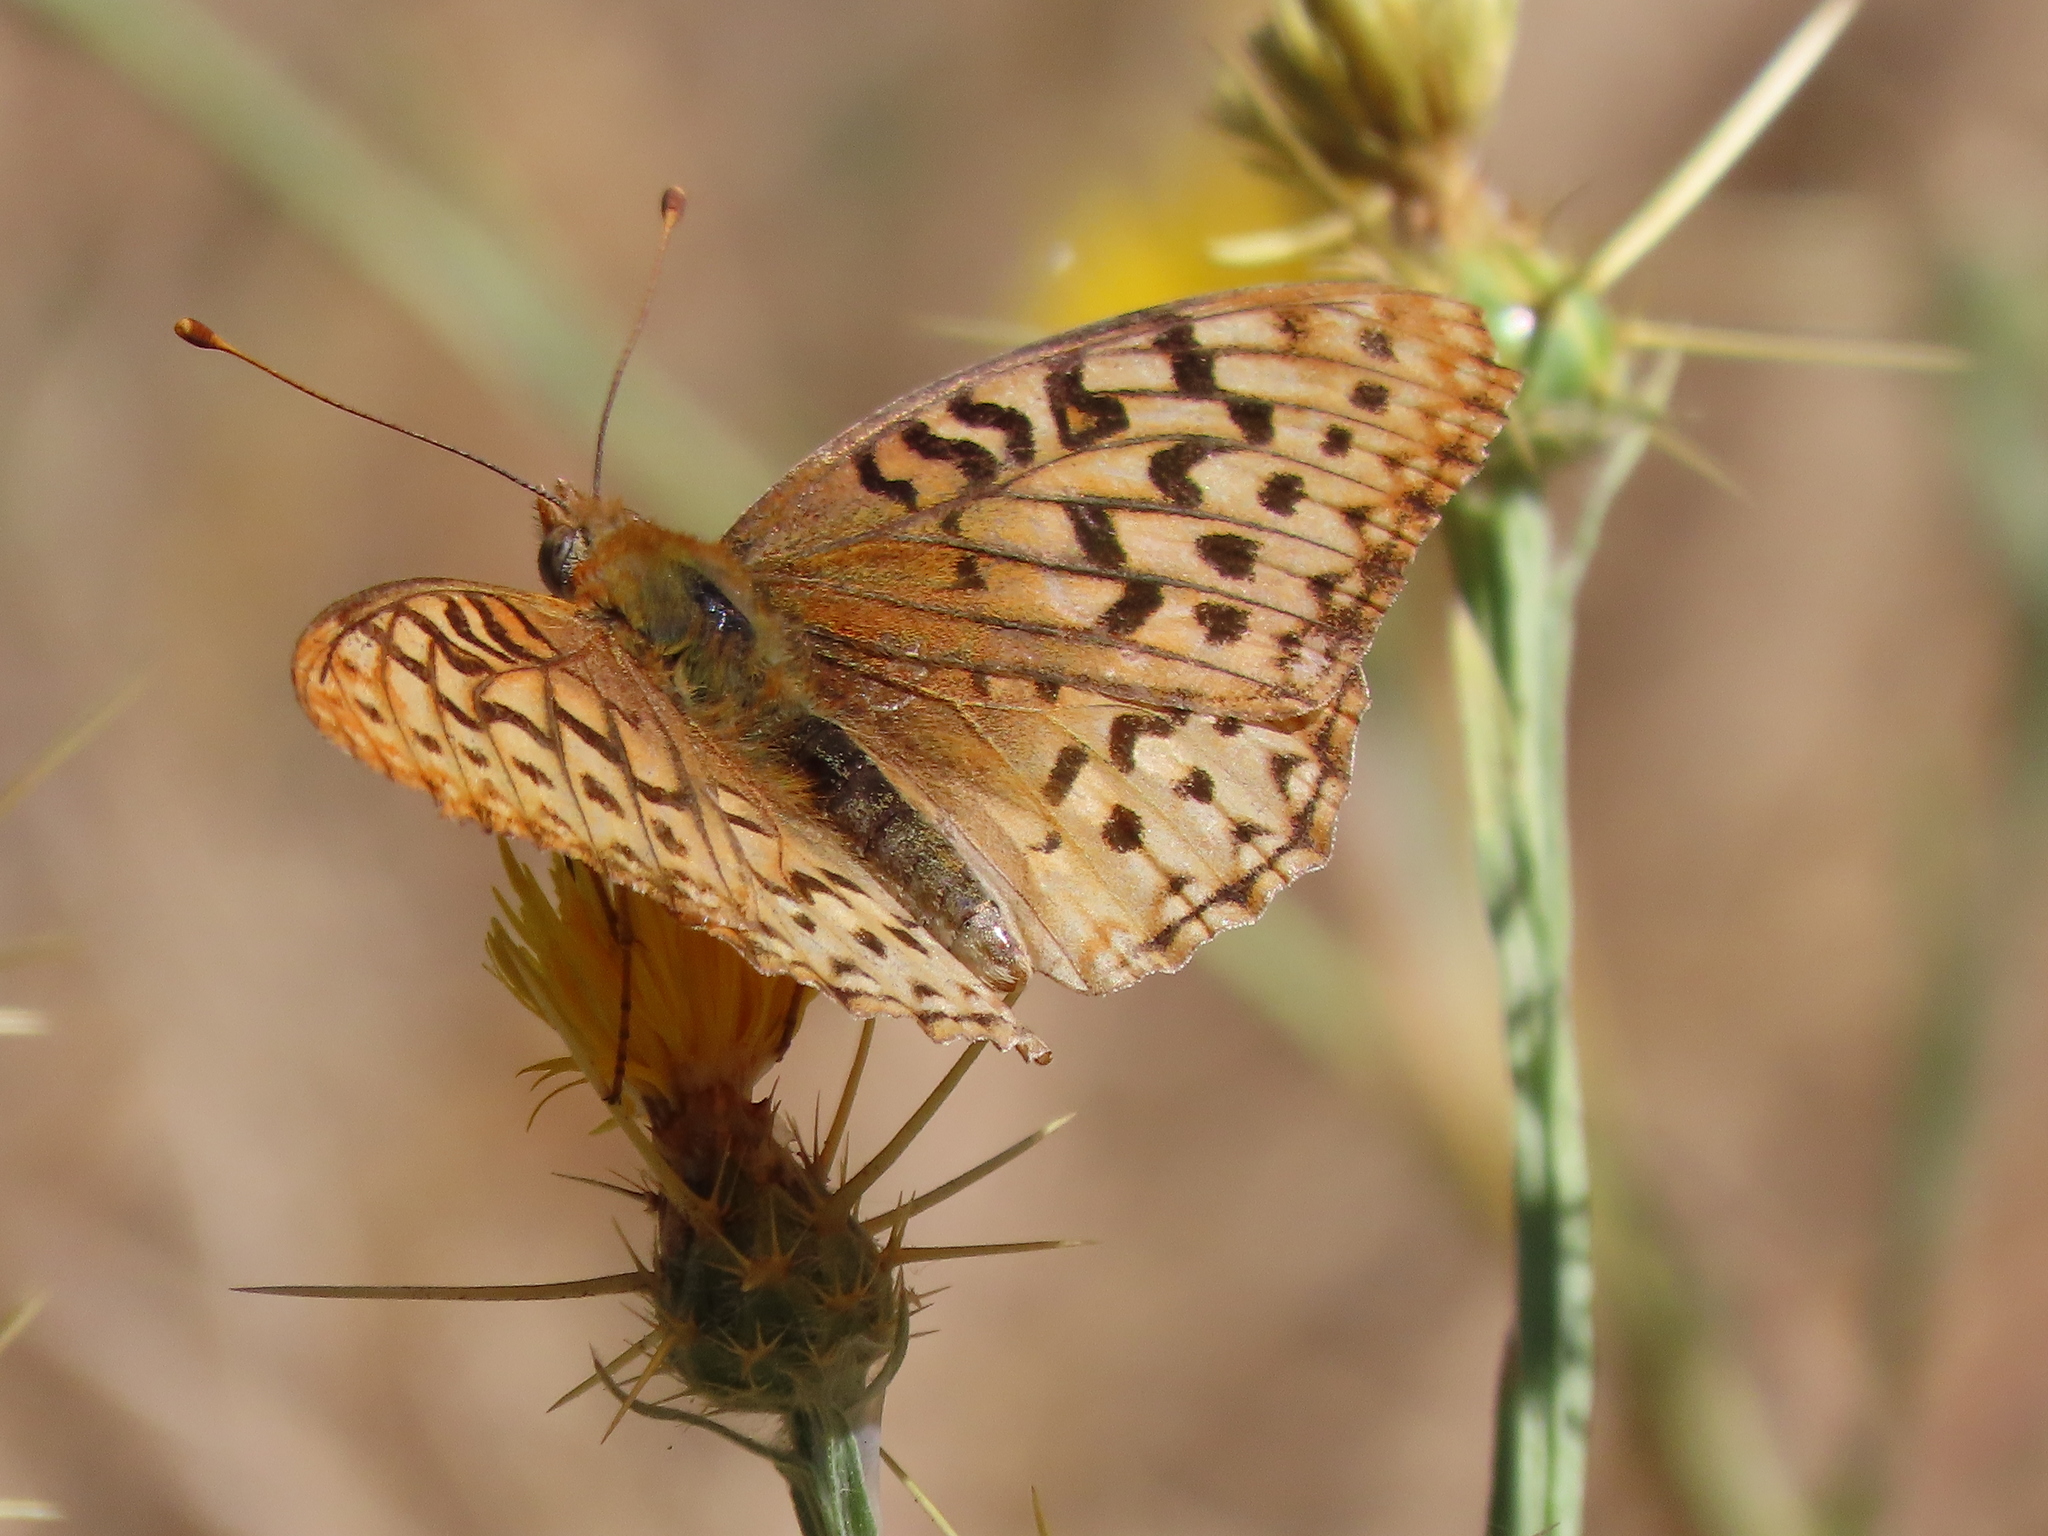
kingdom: Animalia
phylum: Arthropoda
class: Insecta
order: Lepidoptera
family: Nymphalidae
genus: Argynnis
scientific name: Argynnis coronis
